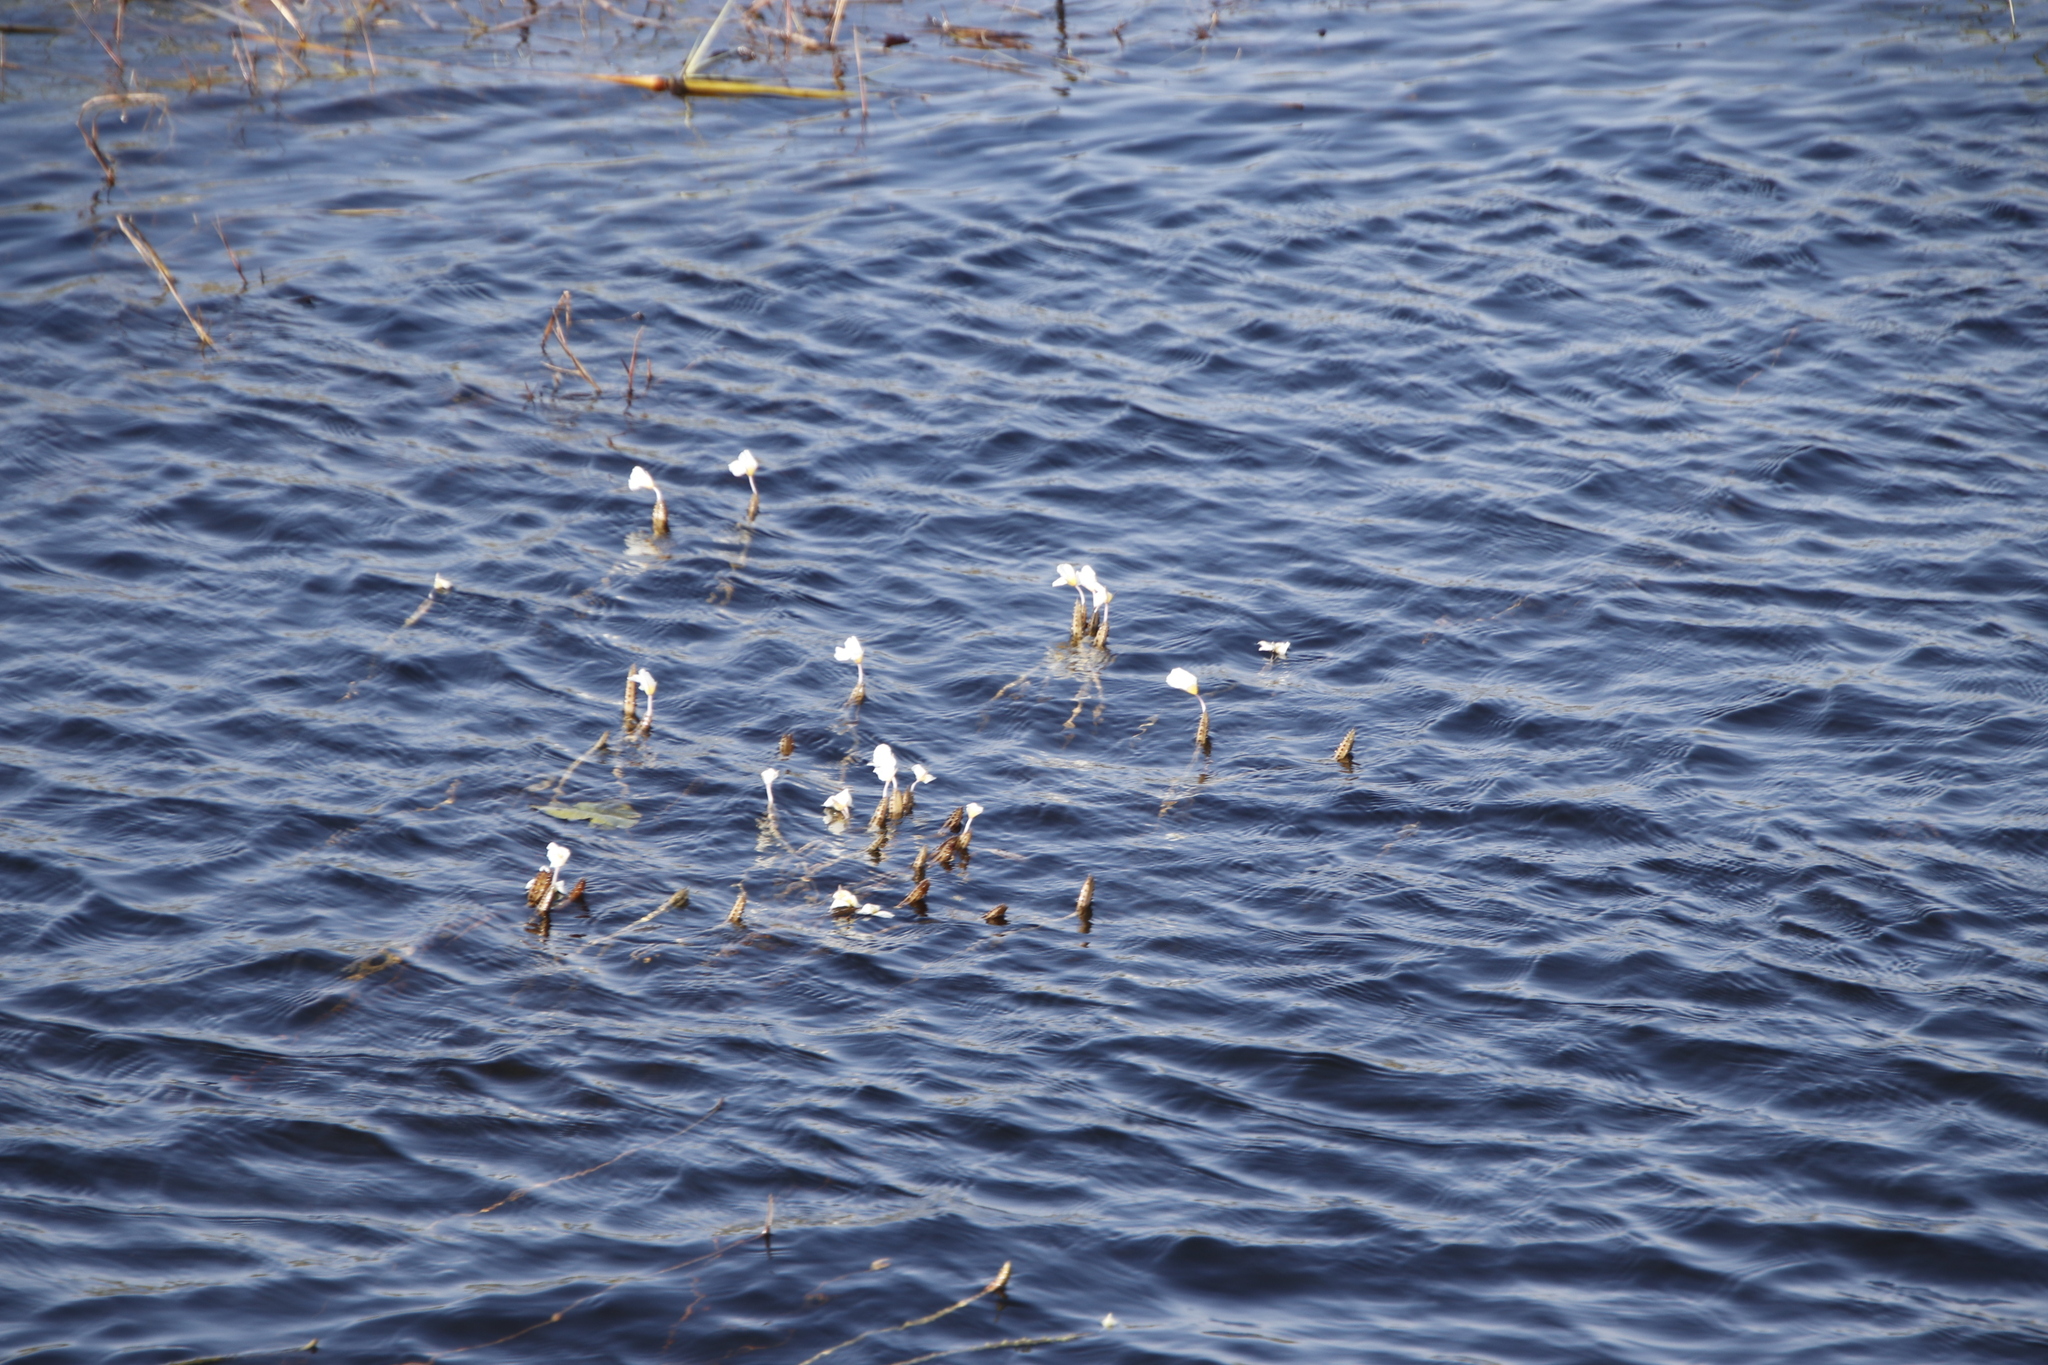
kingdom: Plantae
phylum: Tracheophyta
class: Liliopsida
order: Alismatales
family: Hydrocharitaceae
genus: Ottelia
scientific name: Ottelia muricata
